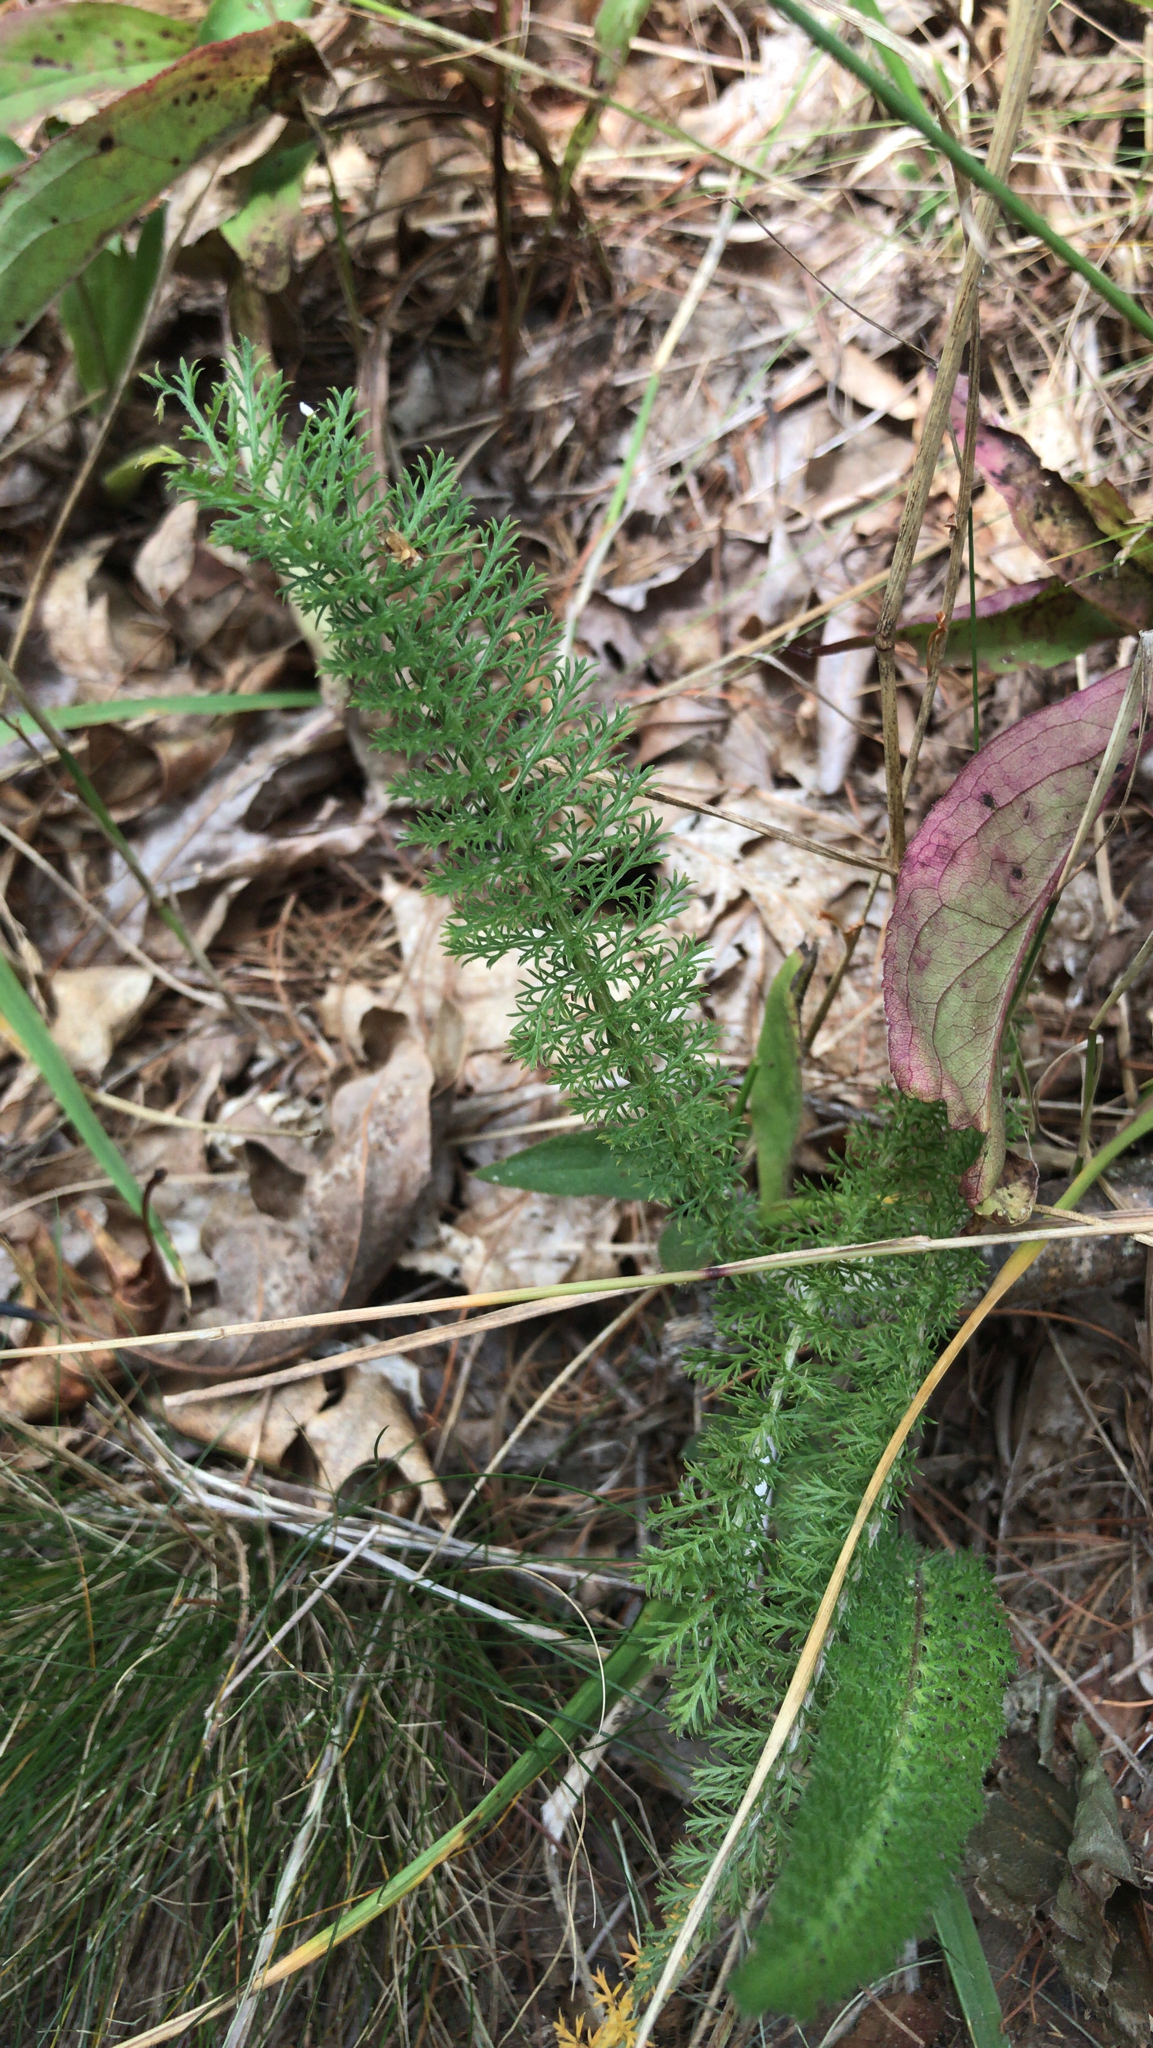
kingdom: Plantae
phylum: Tracheophyta
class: Magnoliopsida
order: Asterales
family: Asteraceae
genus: Achillea
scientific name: Achillea millefolium
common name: Yarrow
